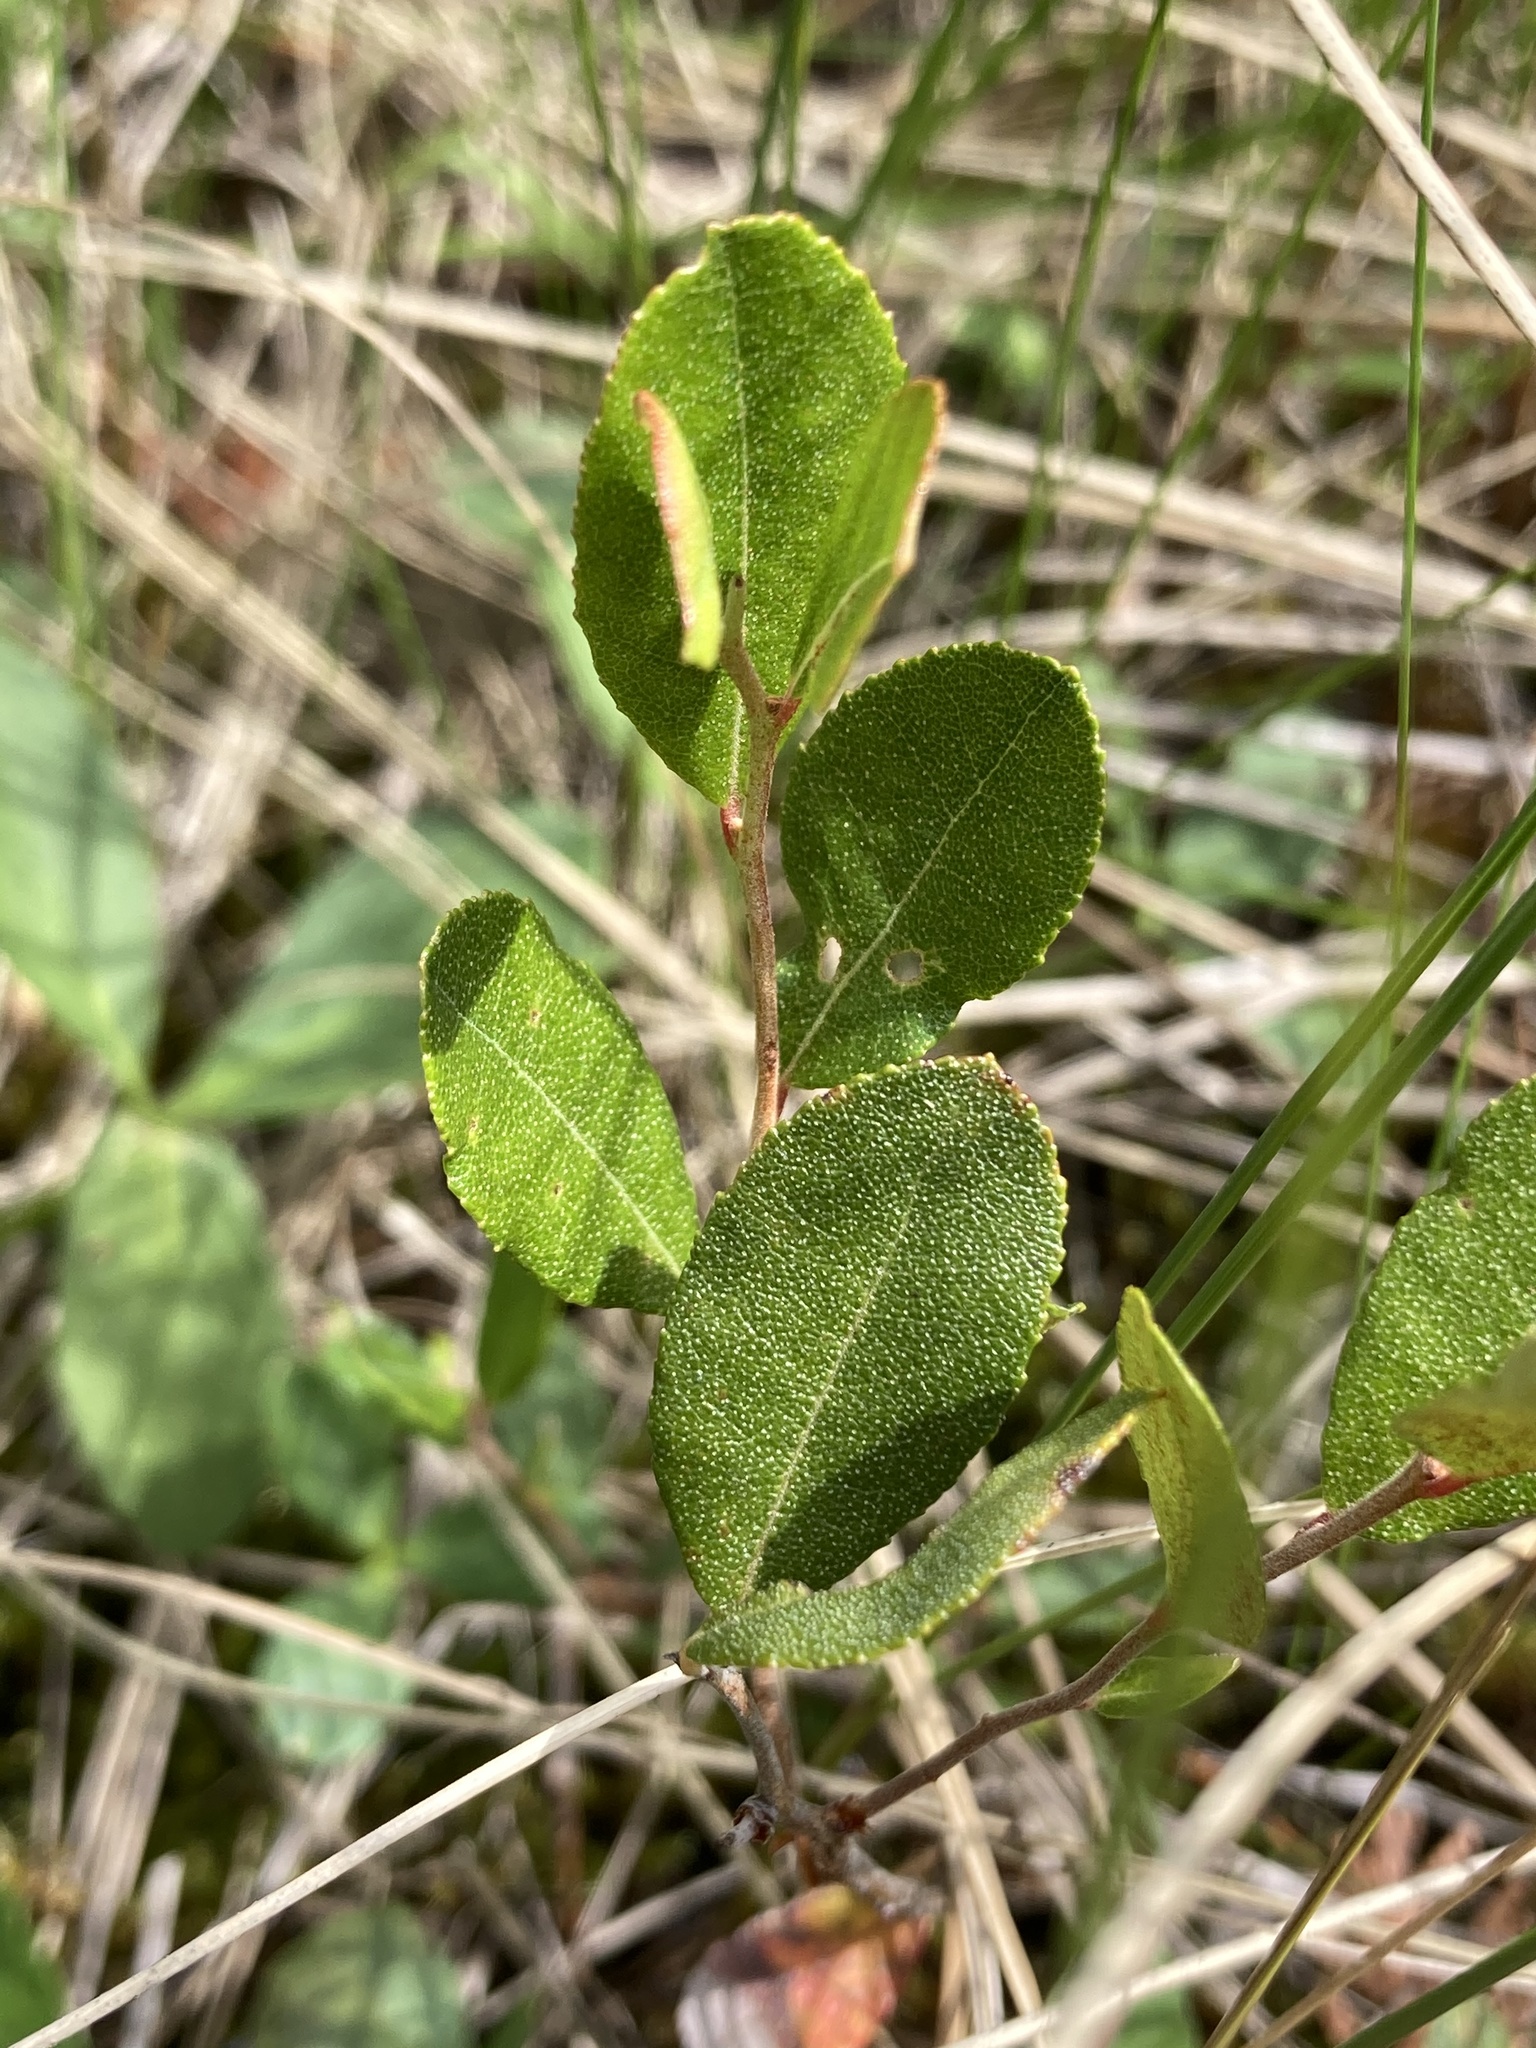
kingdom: Plantae
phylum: Tracheophyta
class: Magnoliopsida
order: Ericales
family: Ericaceae
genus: Chamaedaphne
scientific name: Chamaedaphne calyculata
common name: Leatherleaf
